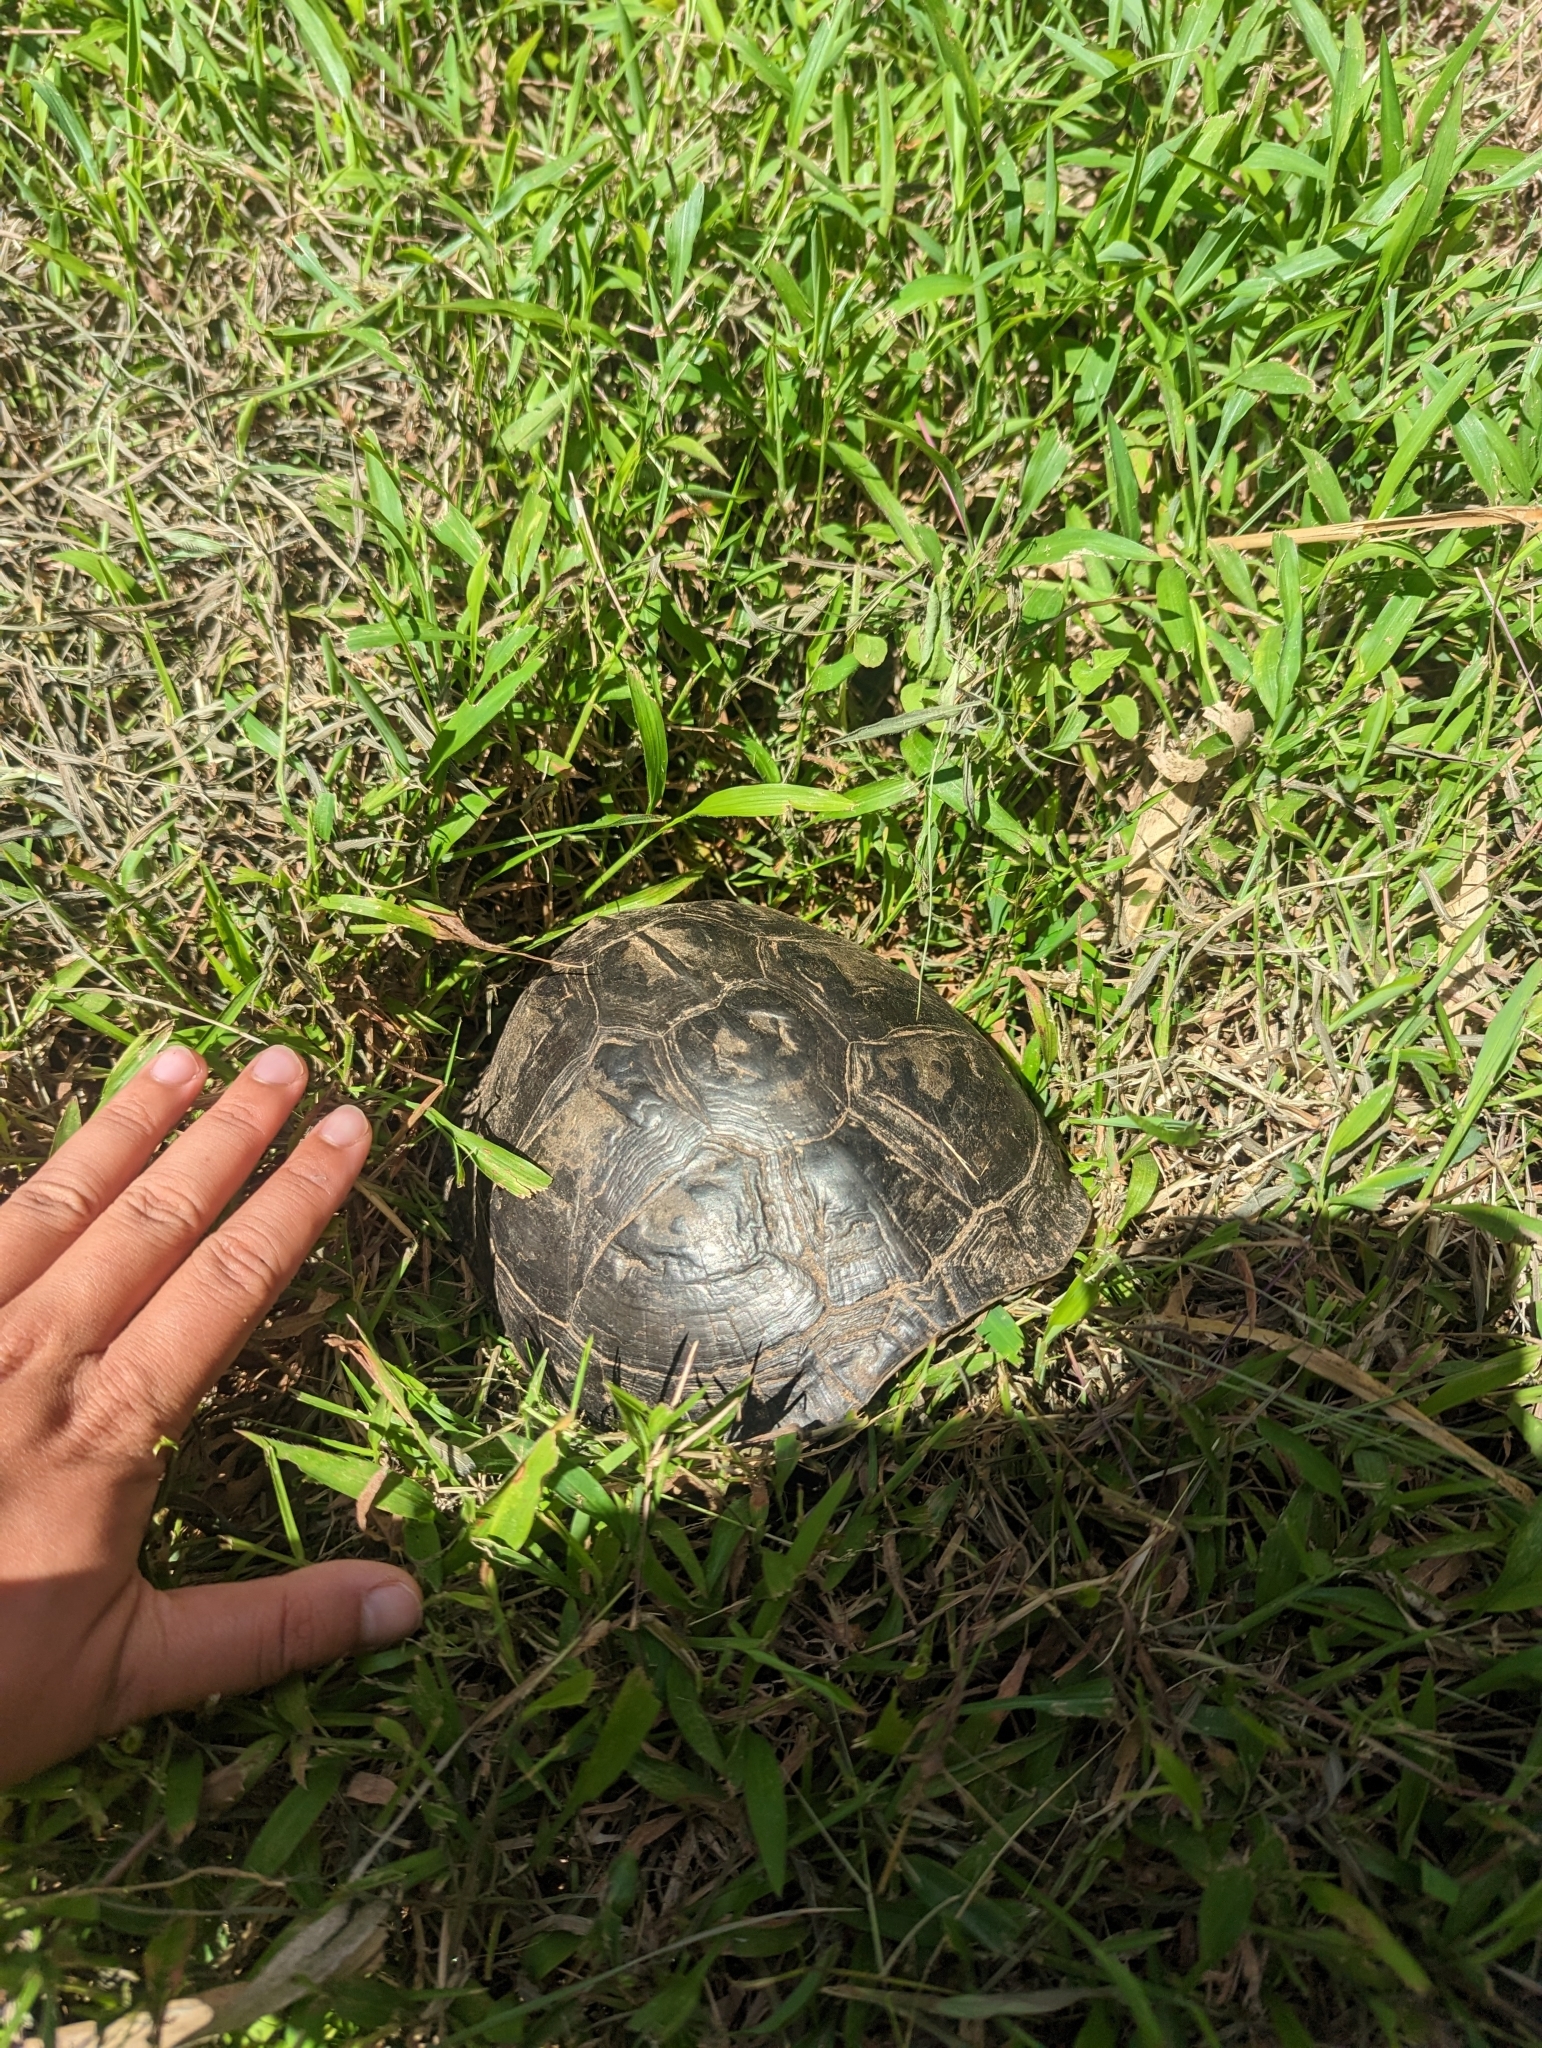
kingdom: Animalia
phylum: Chordata
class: Testudines
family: Geoemydidae
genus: Cuora
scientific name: Cuora
